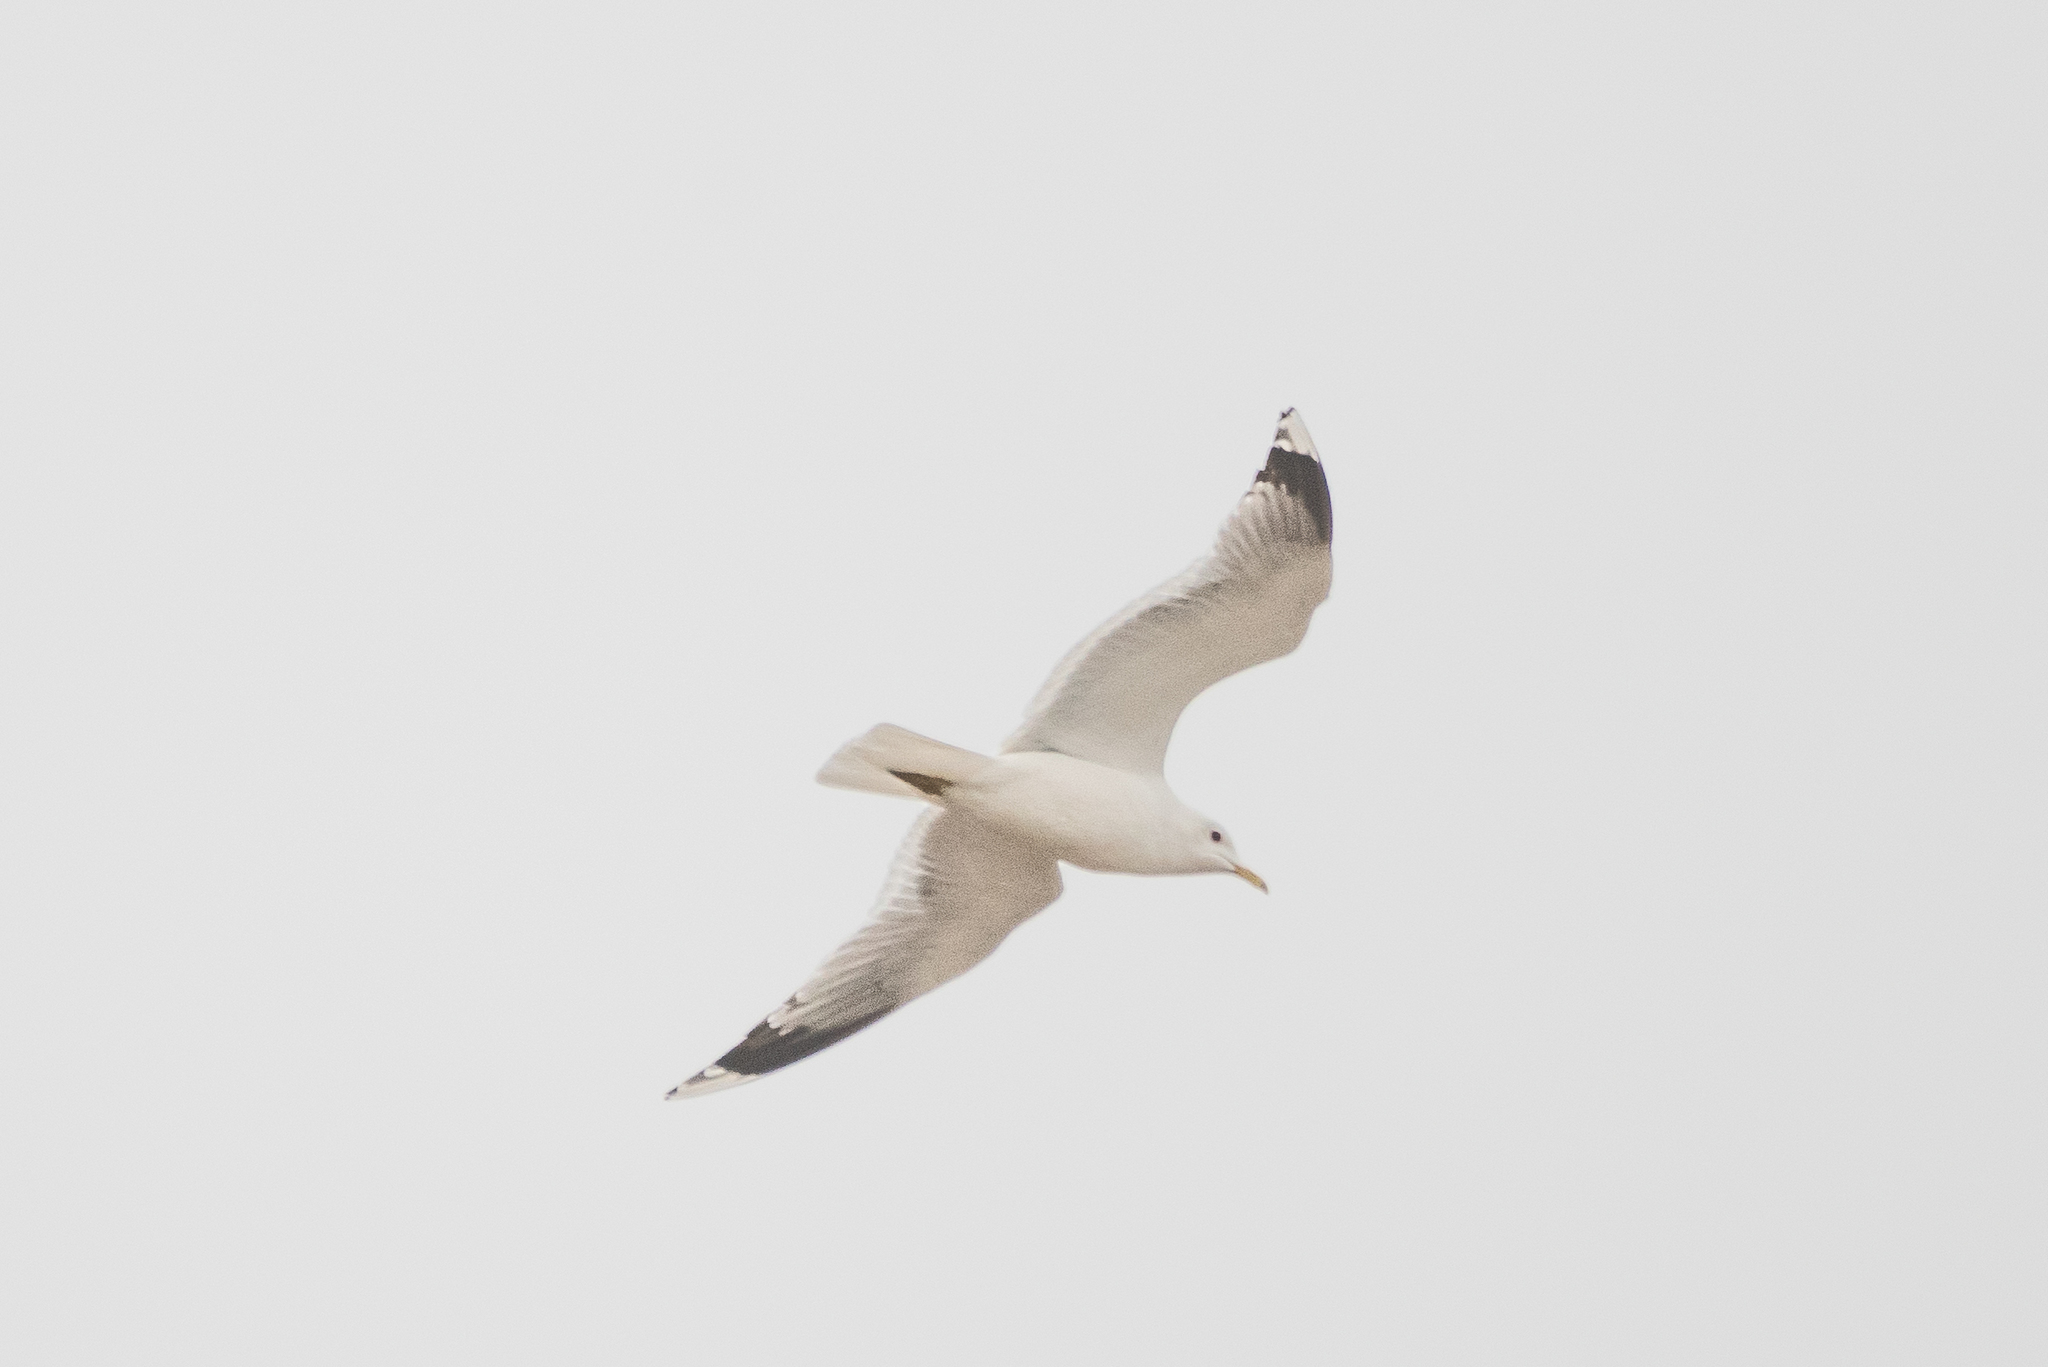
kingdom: Animalia
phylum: Chordata
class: Aves
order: Charadriiformes
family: Laridae
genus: Larus
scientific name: Larus canus
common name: Mew gull
